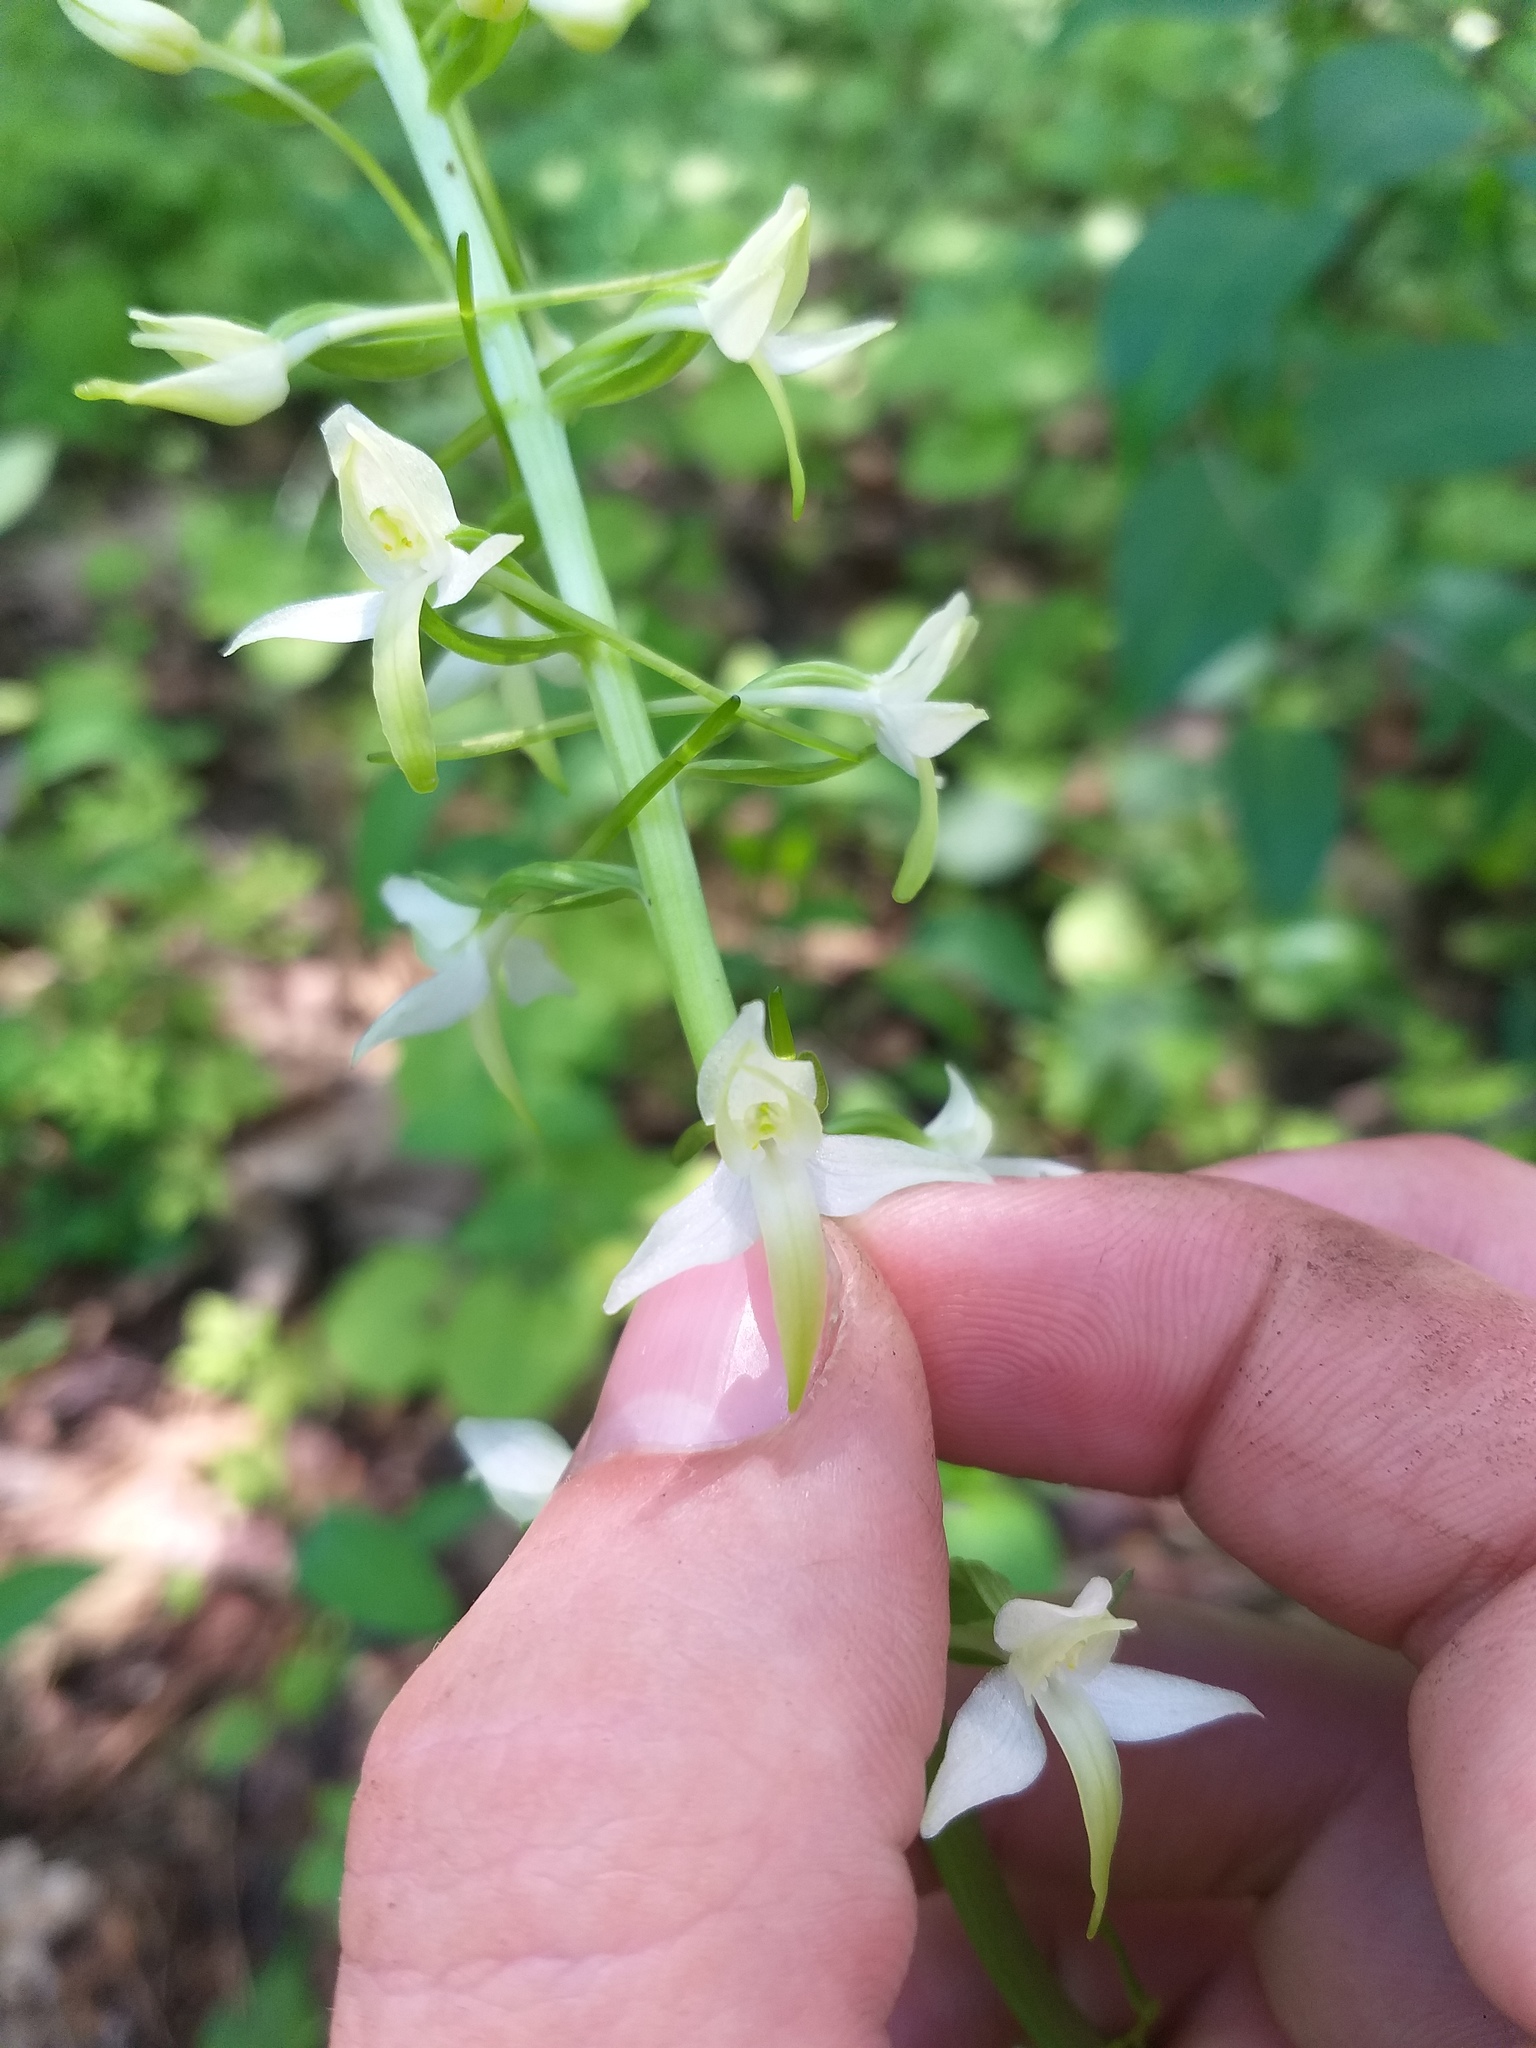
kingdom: Plantae
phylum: Tracheophyta
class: Liliopsida
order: Asparagales
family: Orchidaceae
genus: Platanthera
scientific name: Platanthera bifolia
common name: Lesser butterfly-orchid
